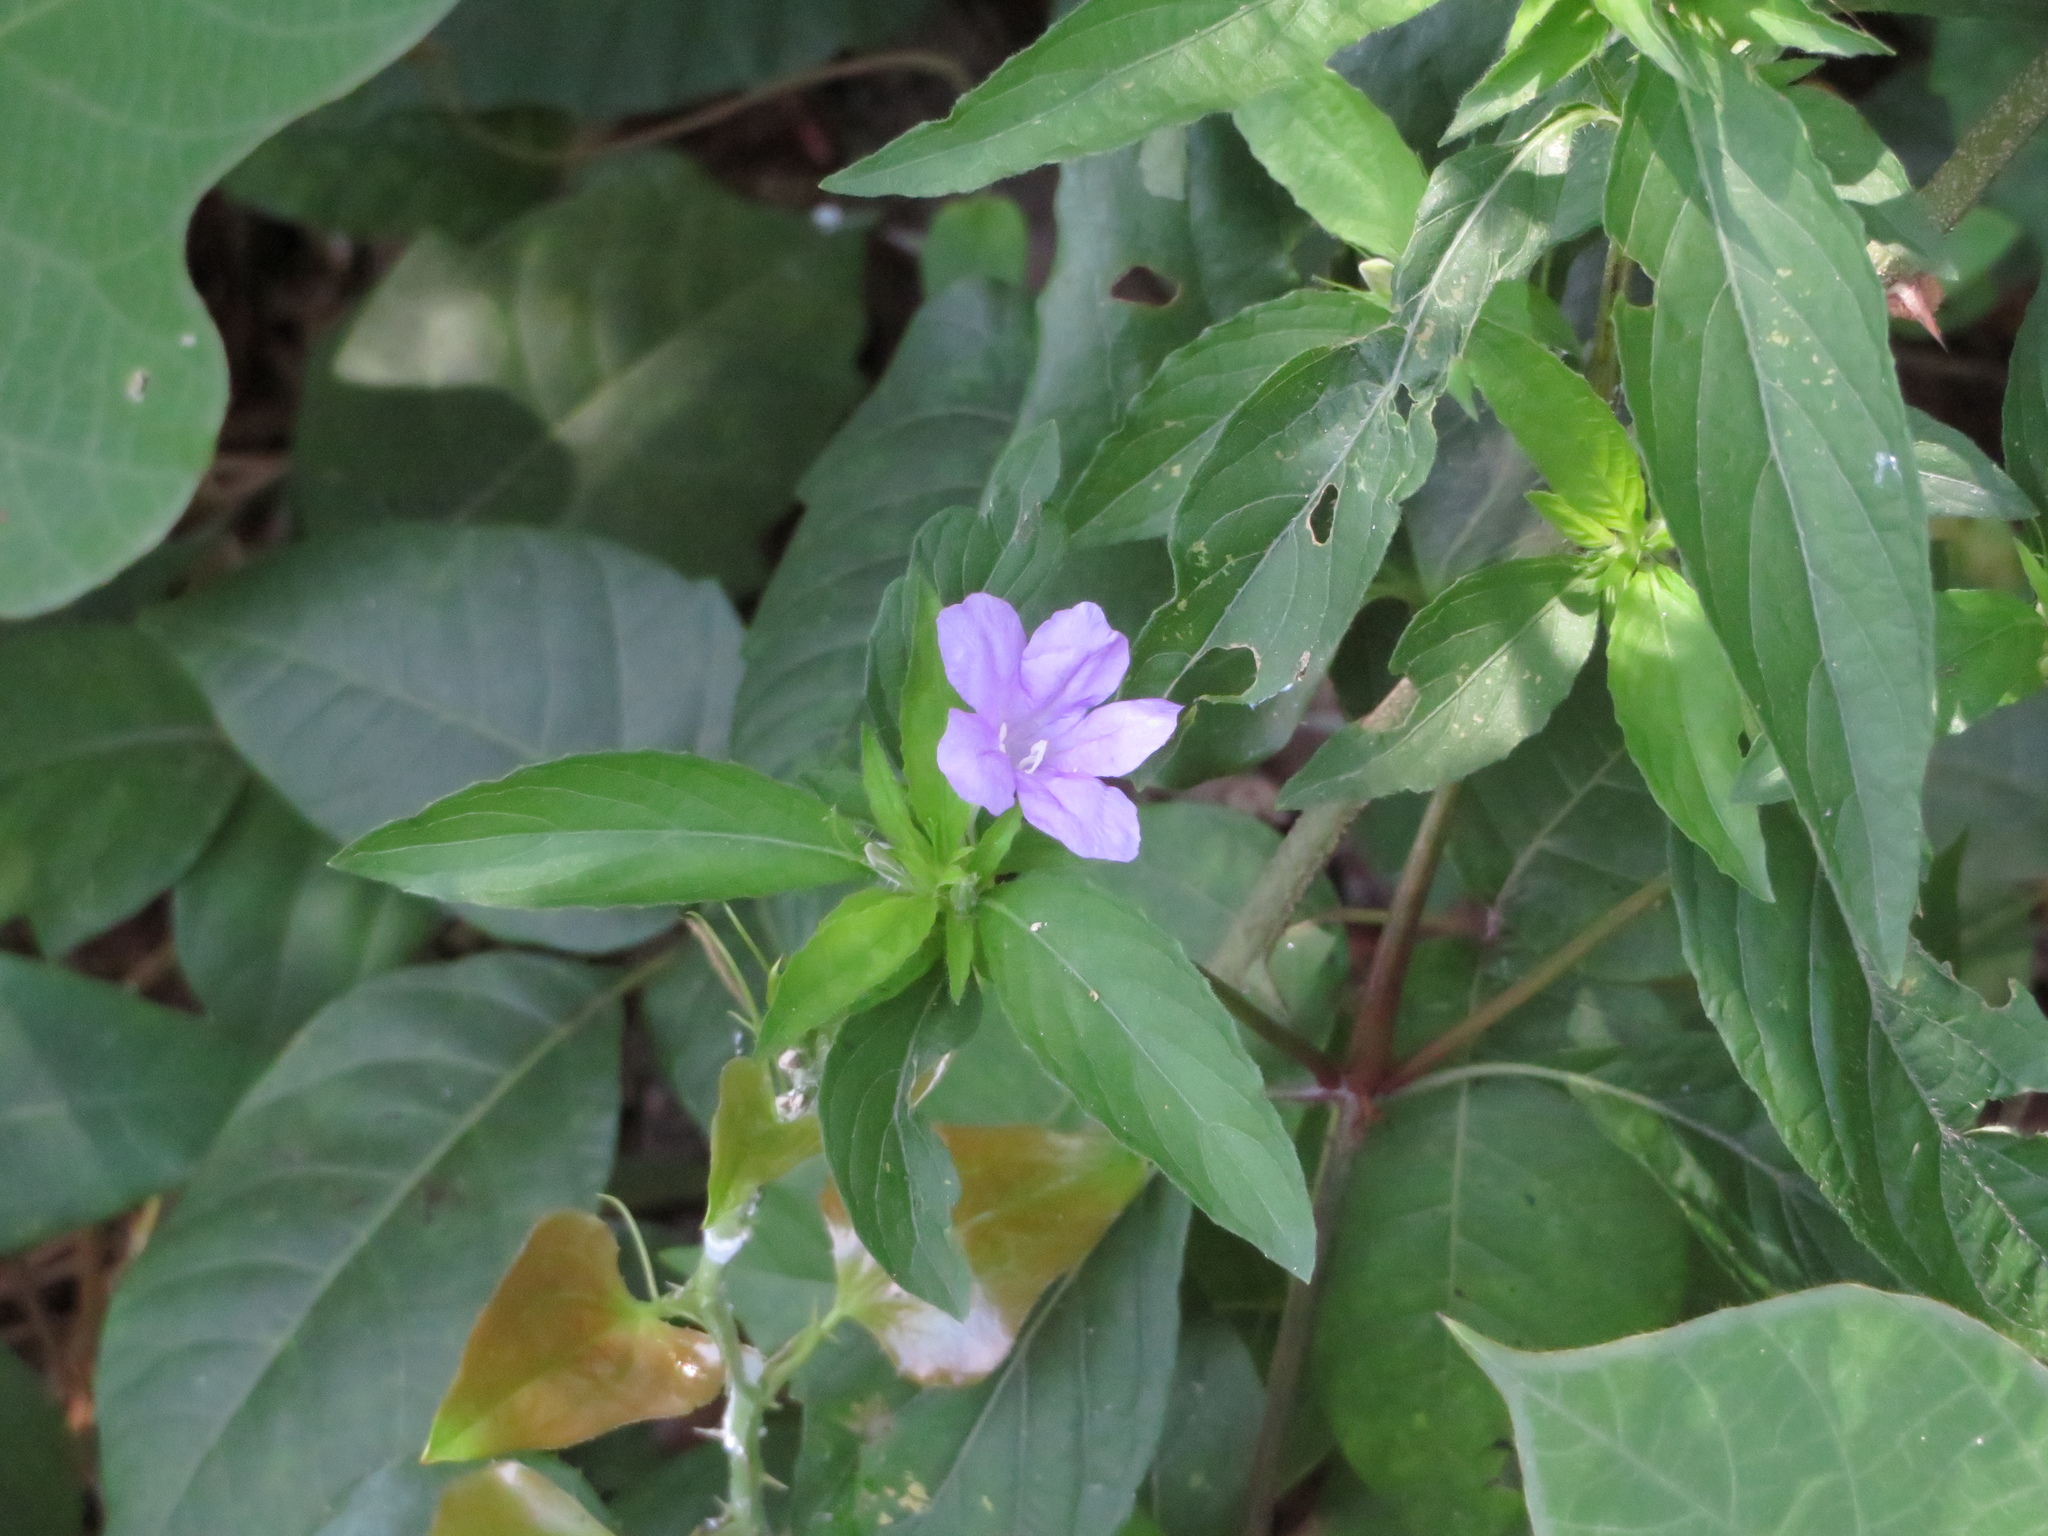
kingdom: Plantae
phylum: Tracheophyta
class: Magnoliopsida
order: Lamiales
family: Acanthaceae
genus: Ruellia
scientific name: Ruellia caroliniensis
